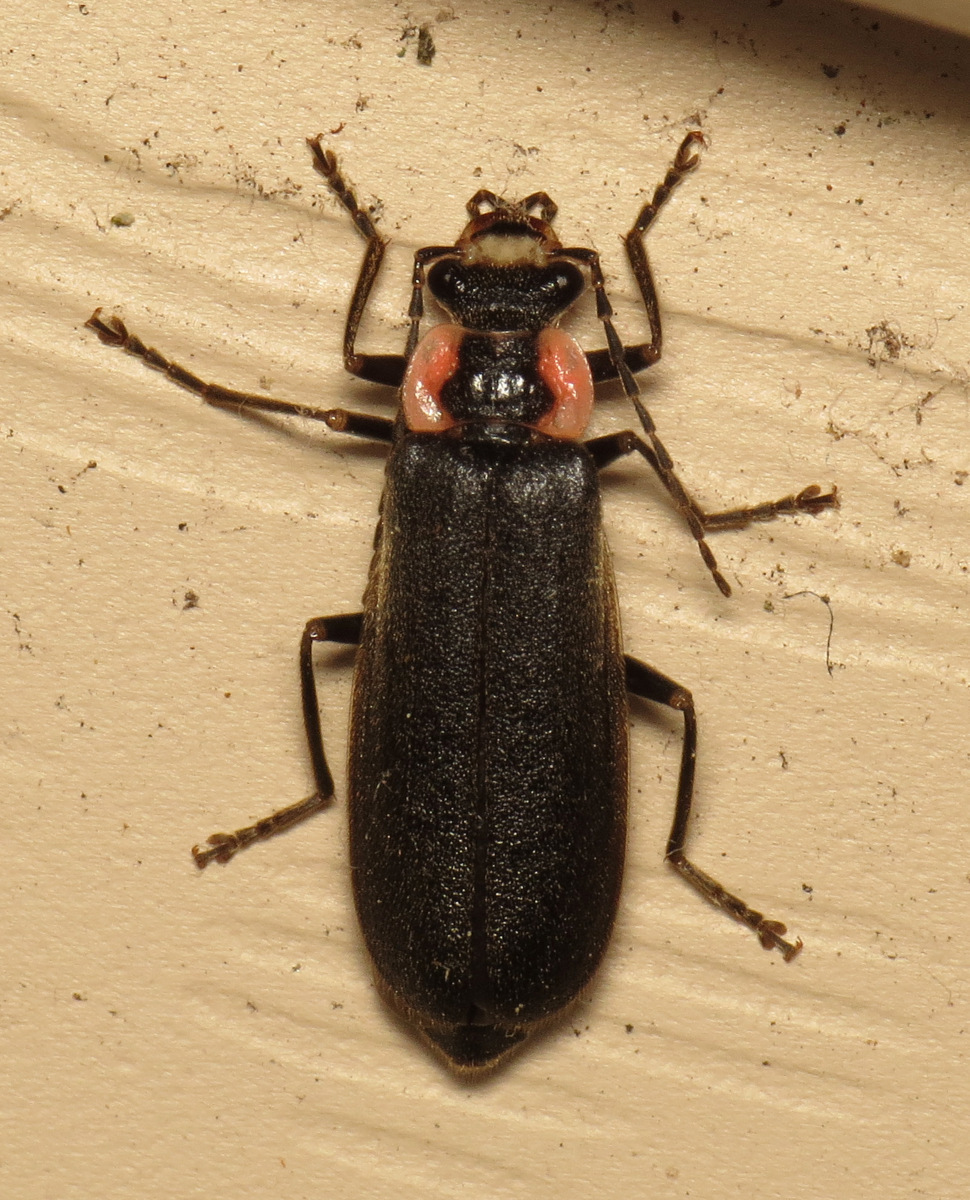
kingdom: Animalia
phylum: Arthropoda
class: Insecta
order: Coleoptera
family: Cantharidae
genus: Podabrus
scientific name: Podabrus brevicollis
